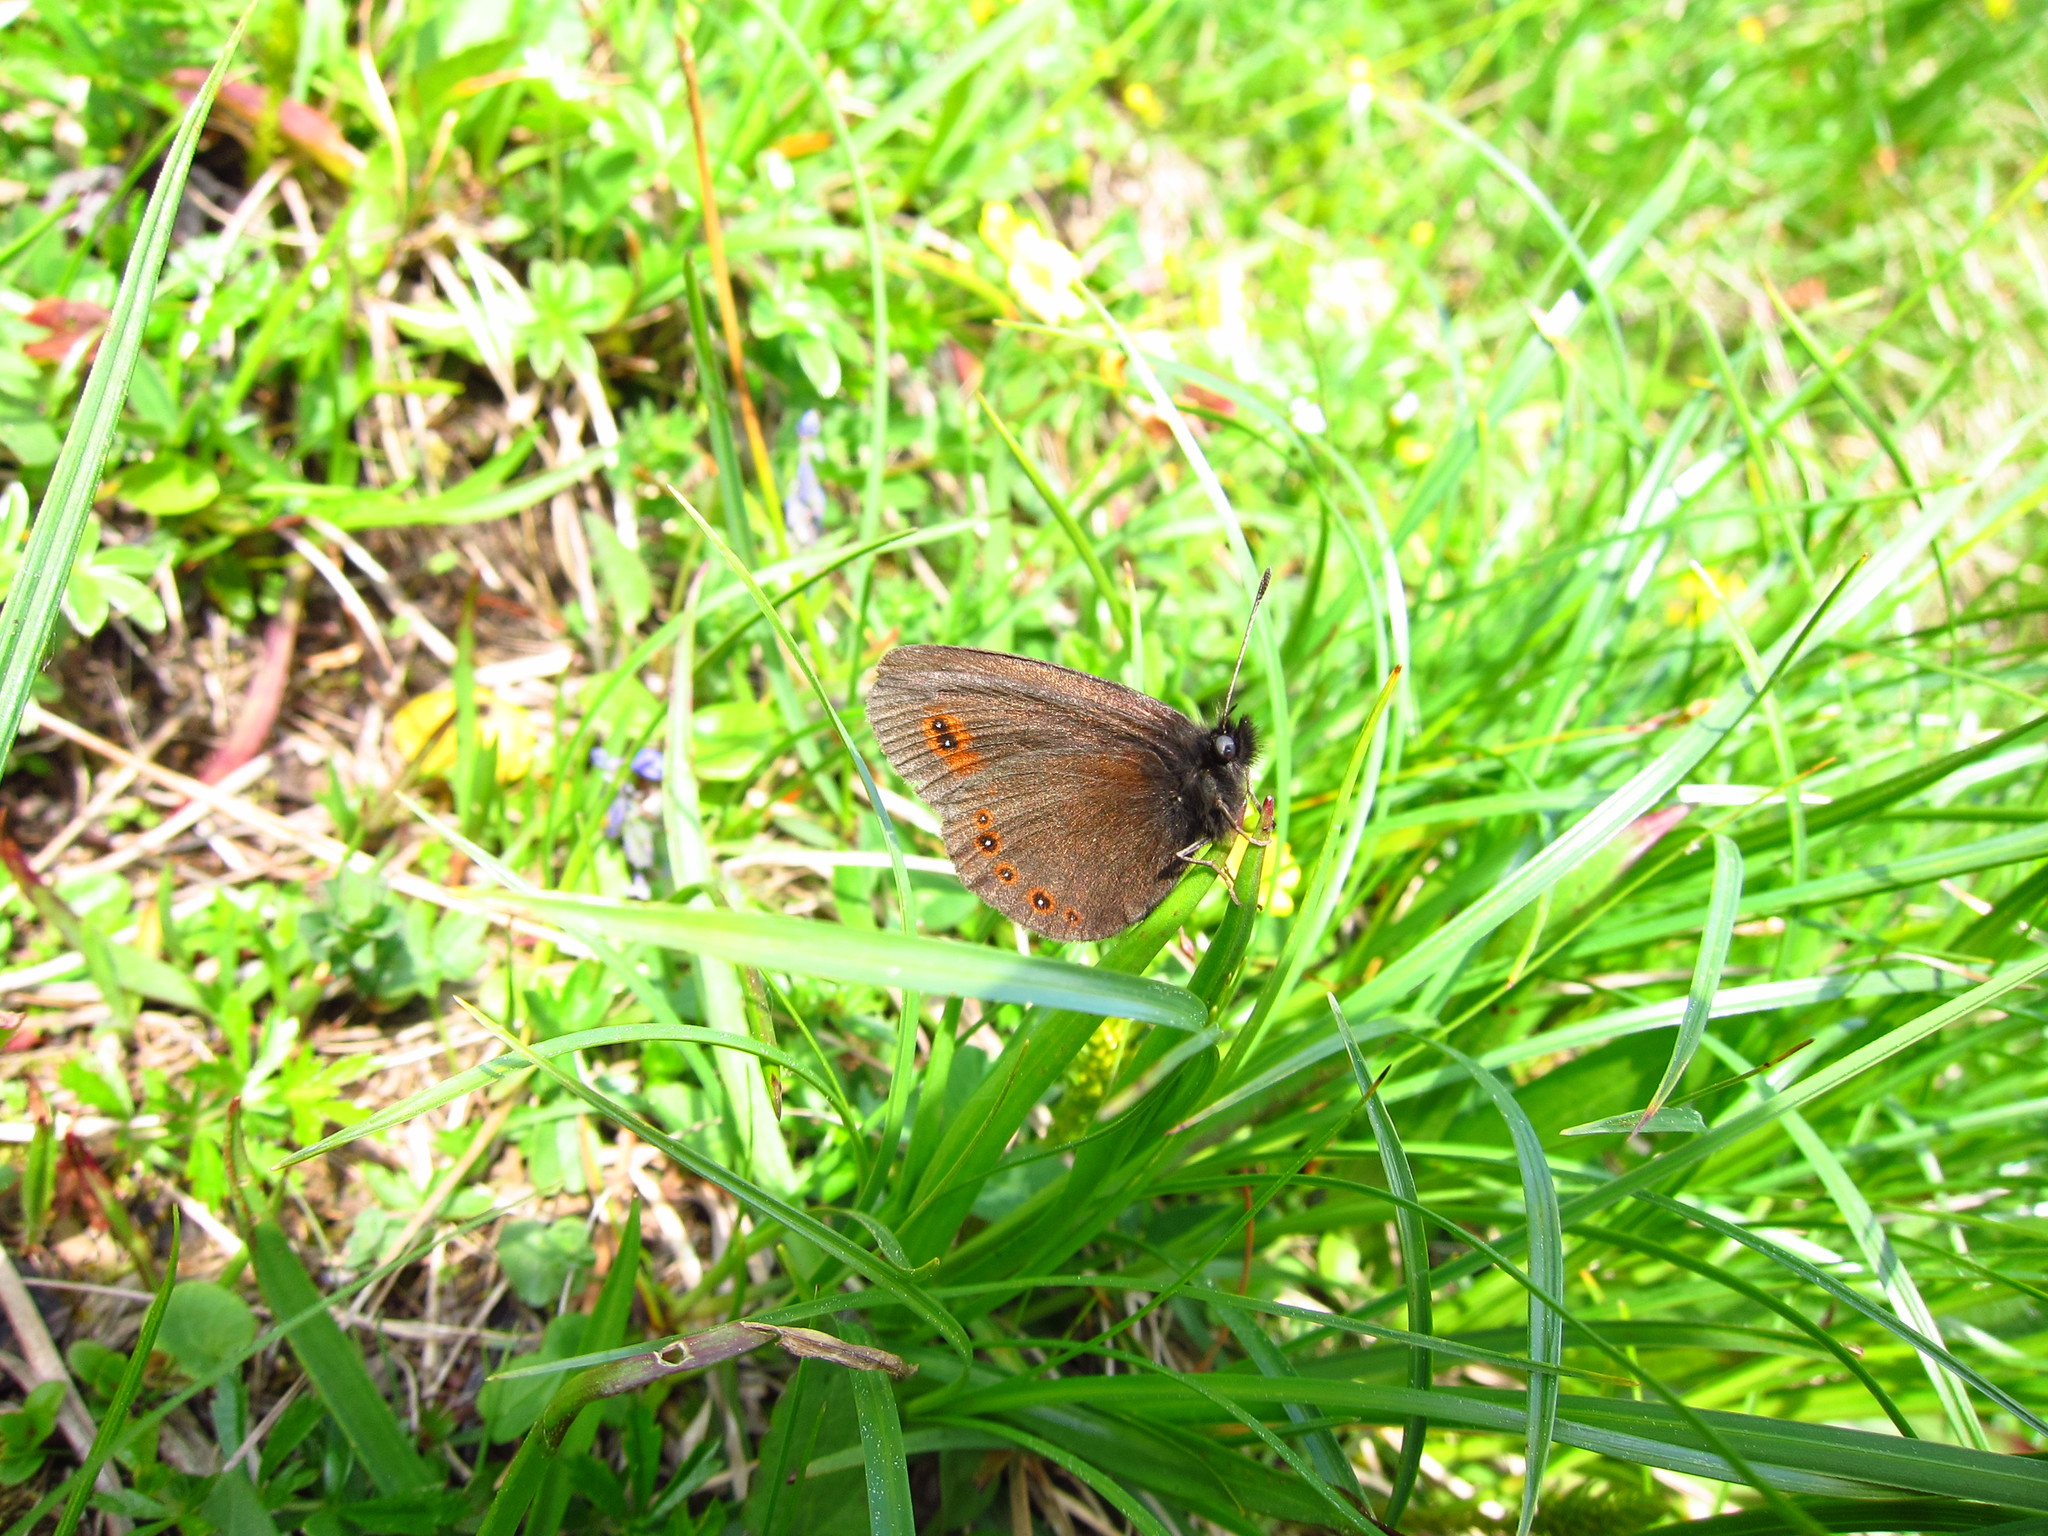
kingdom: Animalia
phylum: Arthropoda
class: Insecta
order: Lepidoptera
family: Nymphalidae
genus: Erebia
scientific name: Erebia oeme
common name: Bright-eyed ringlet
